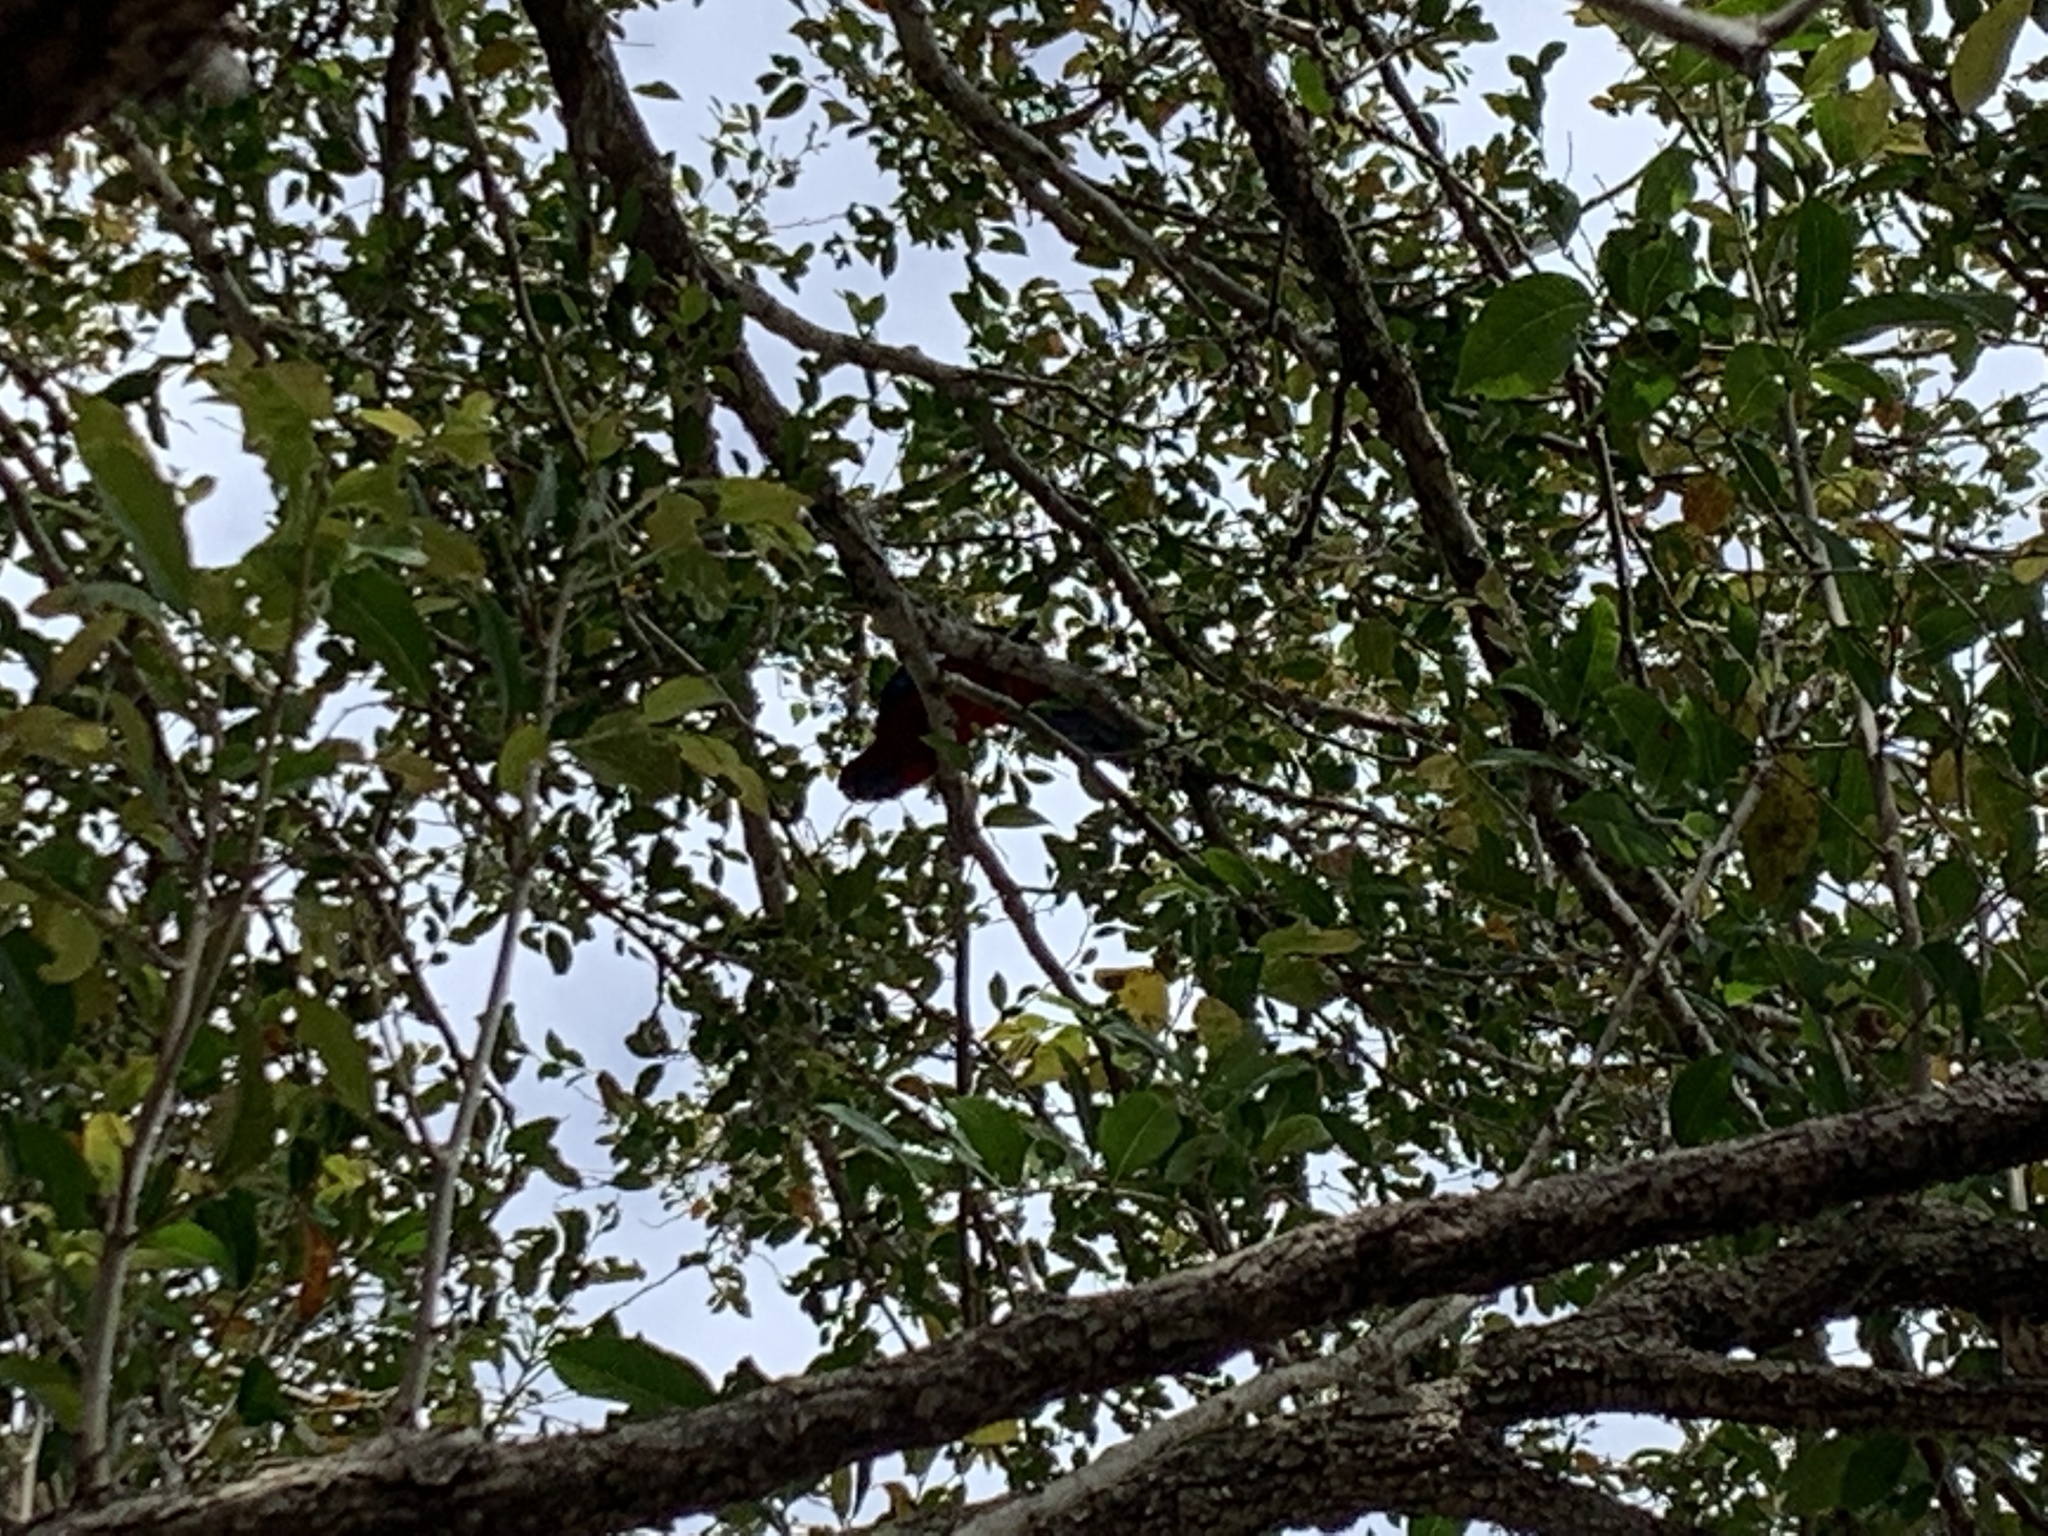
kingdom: Animalia
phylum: Chordata
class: Aves
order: Psittaciformes
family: Psittacidae
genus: Platycercus
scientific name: Platycercus elegans
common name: Crimson rosella
